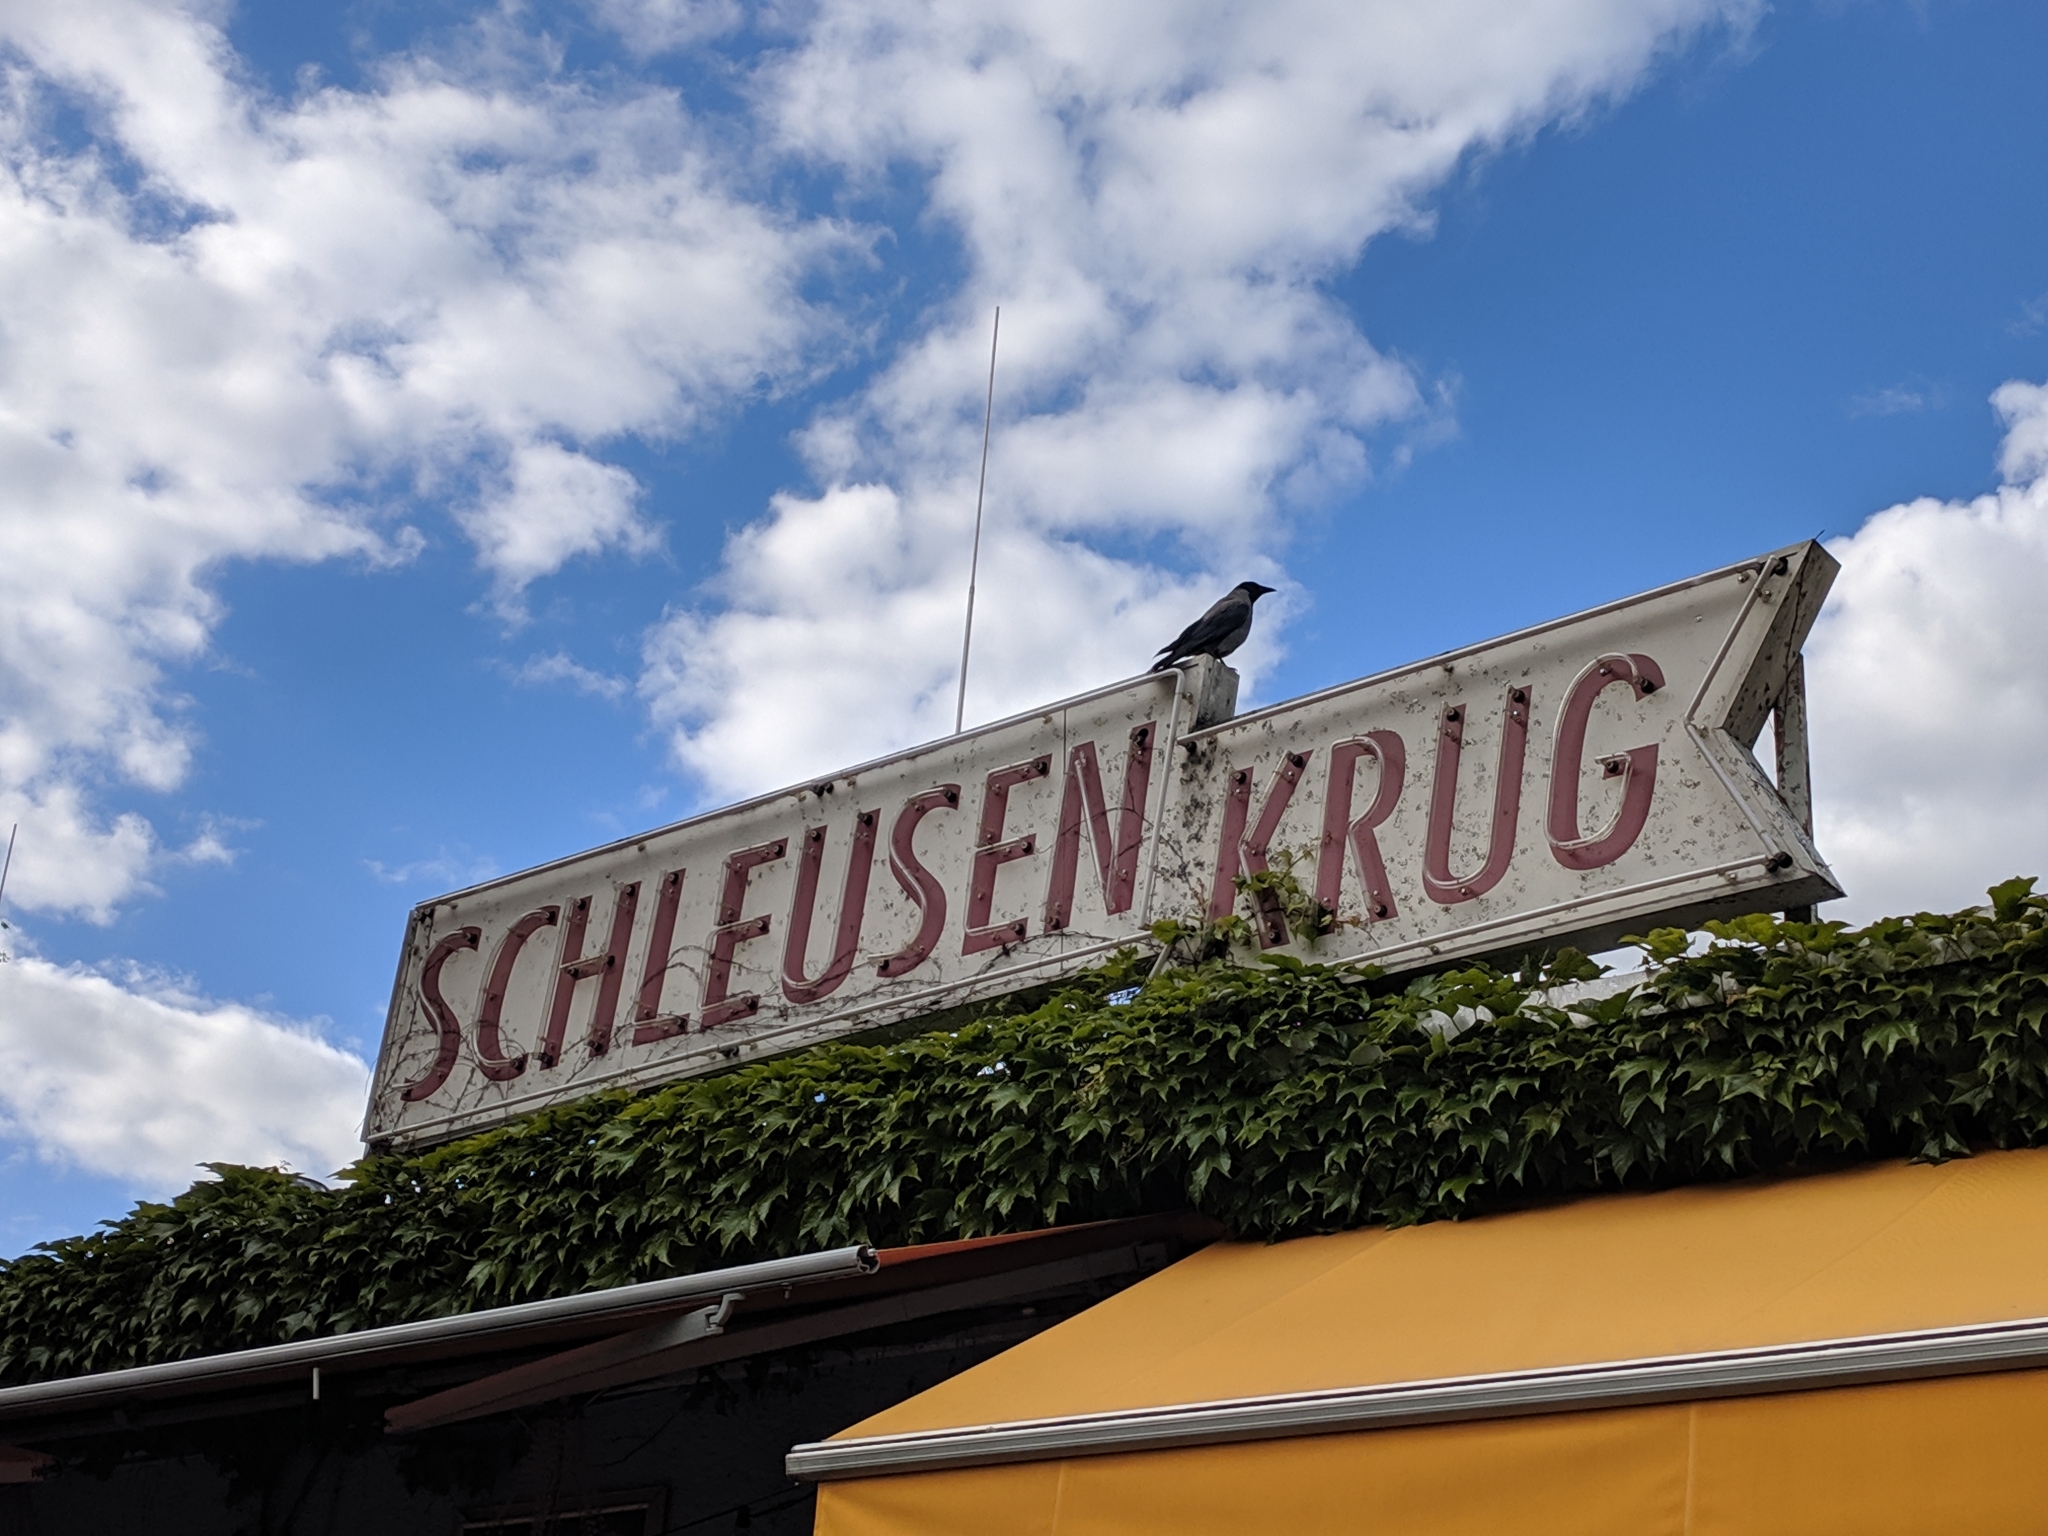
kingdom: Animalia
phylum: Chordata
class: Aves
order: Passeriformes
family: Corvidae
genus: Corvus
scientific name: Corvus cornix
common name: Hooded crow
